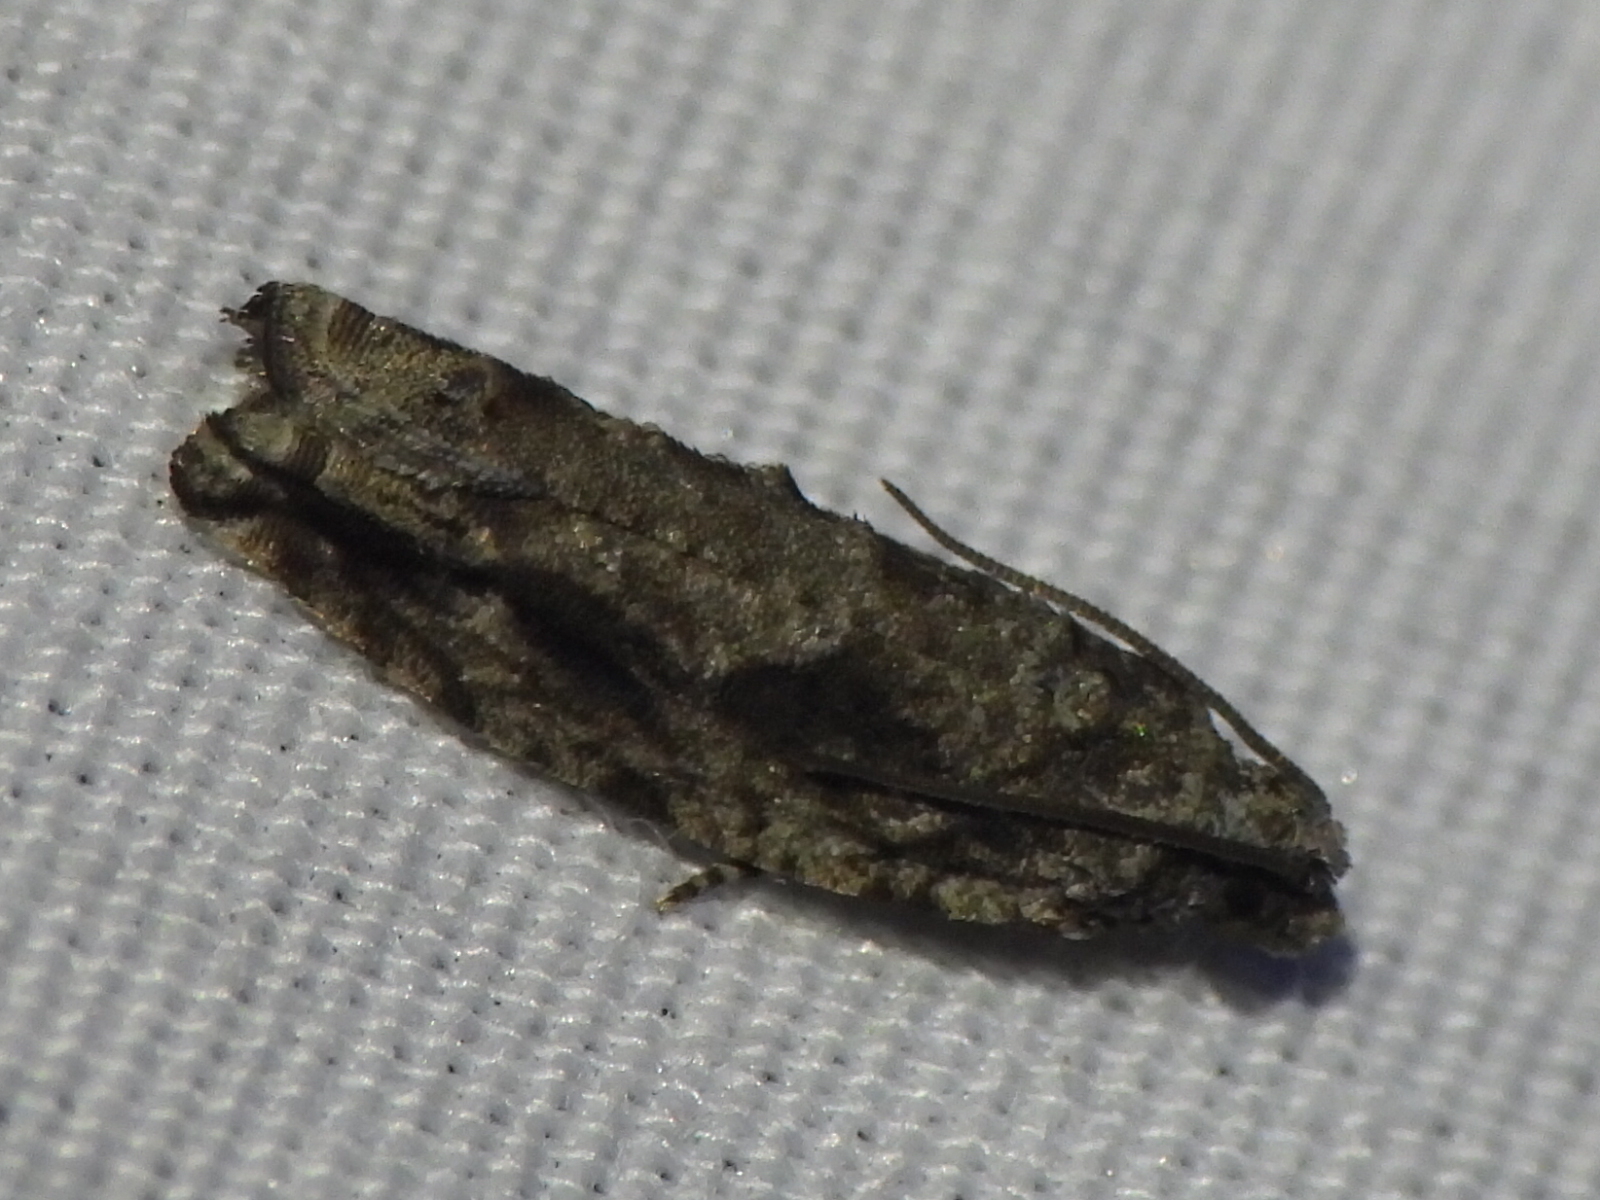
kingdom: Animalia
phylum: Arthropoda
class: Insecta
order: Lepidoptera
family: Tortricidae
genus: Gretchena
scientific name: Gretchena bolliana
